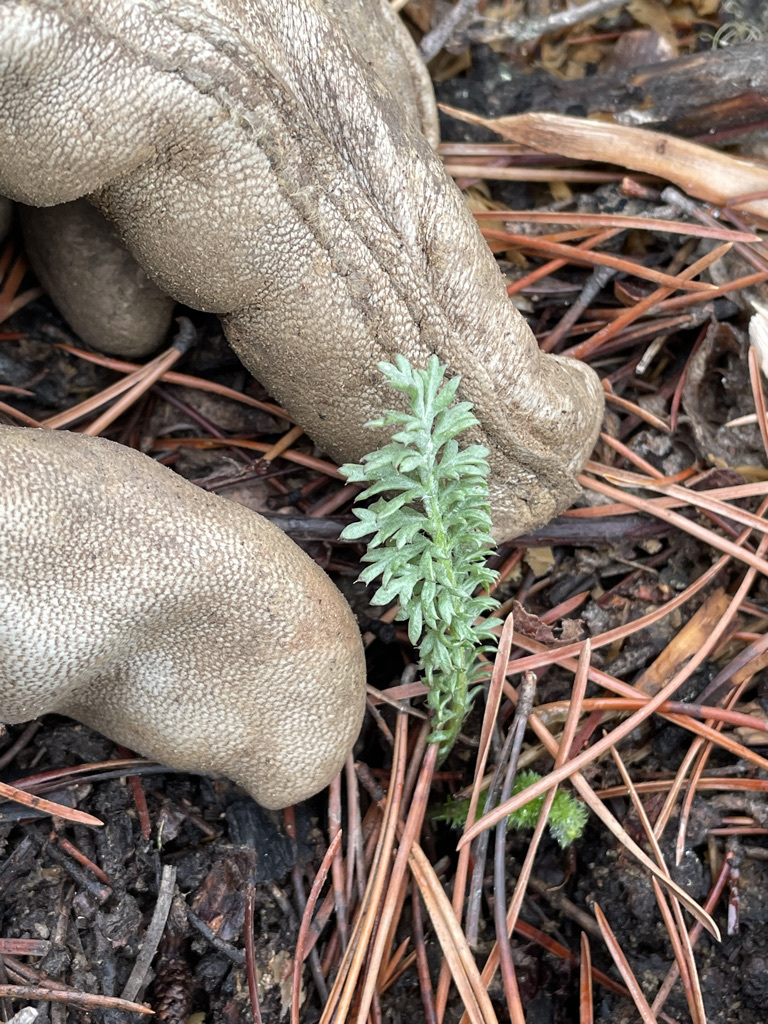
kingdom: Plantae
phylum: Tracheophyta
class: Magnoliopsida
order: Asterales
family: Asteraceae
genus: Achillea
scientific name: Achillea millefolium
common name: Yarrow
